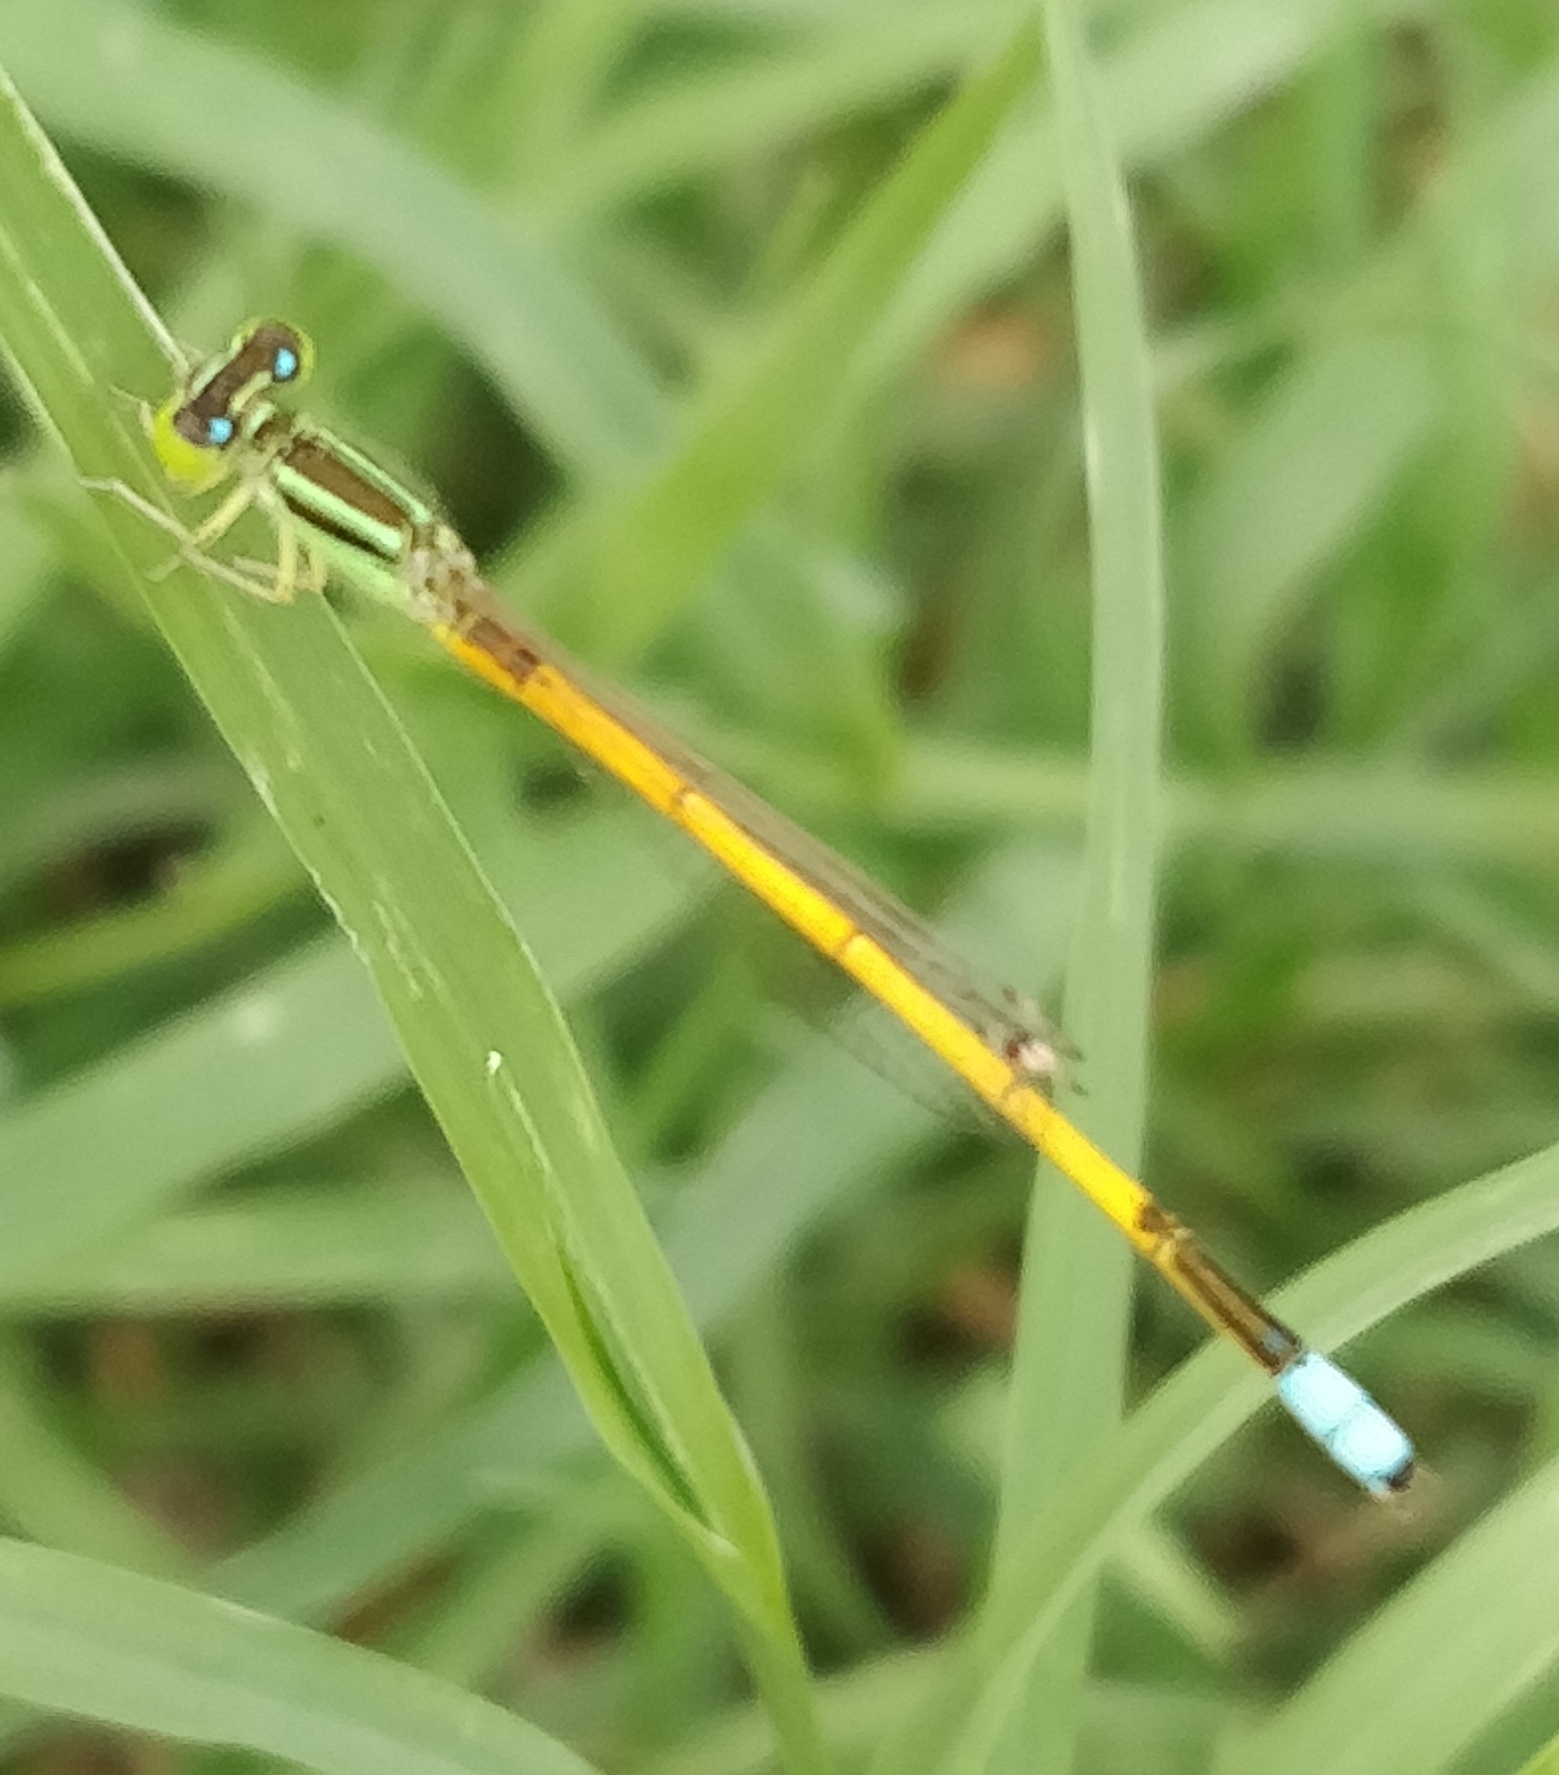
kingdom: Animalia
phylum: Arthropoda
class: Insecta
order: Odonata
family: Coenagrionidae
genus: Ischnura
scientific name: Ischnura rubilio
